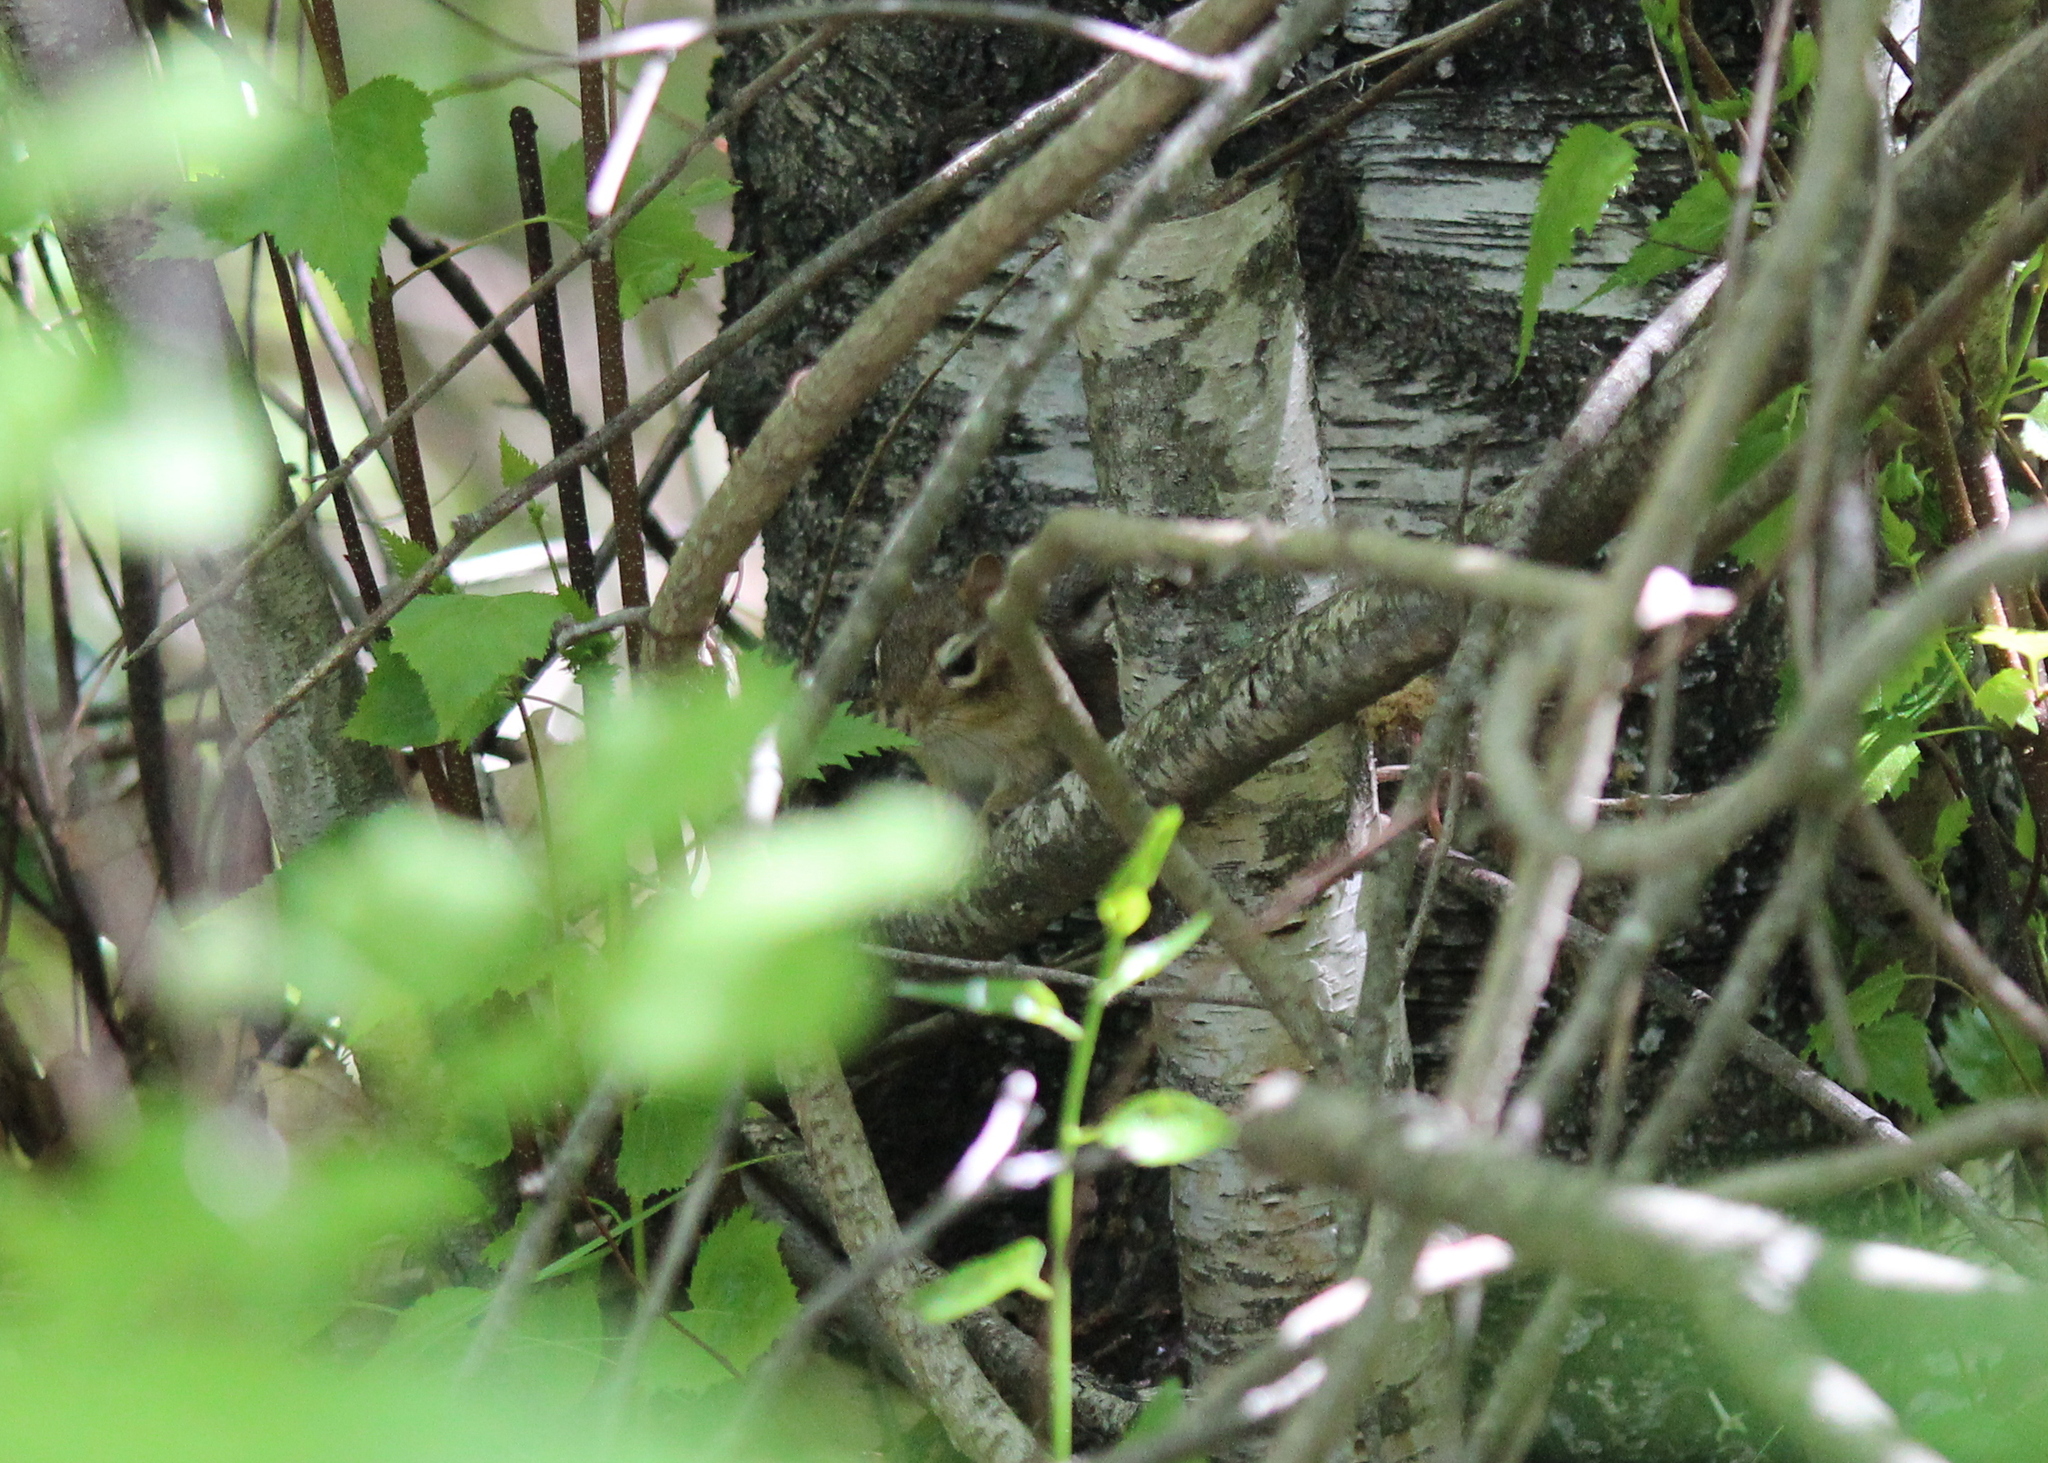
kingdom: Animalia
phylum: Chordata
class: Mammalia
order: Rodentia
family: Sciuridae
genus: Tamias
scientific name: Tamias striatus
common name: Eastern chipmunk
